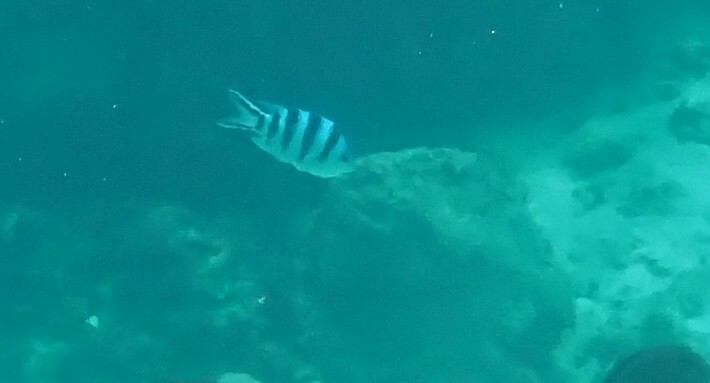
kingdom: Animalia
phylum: Chordata
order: Perciformes
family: Pomacentridae
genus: Abudefduf
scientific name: Abudefduf sexfasciatus
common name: Scissortail sergeant
